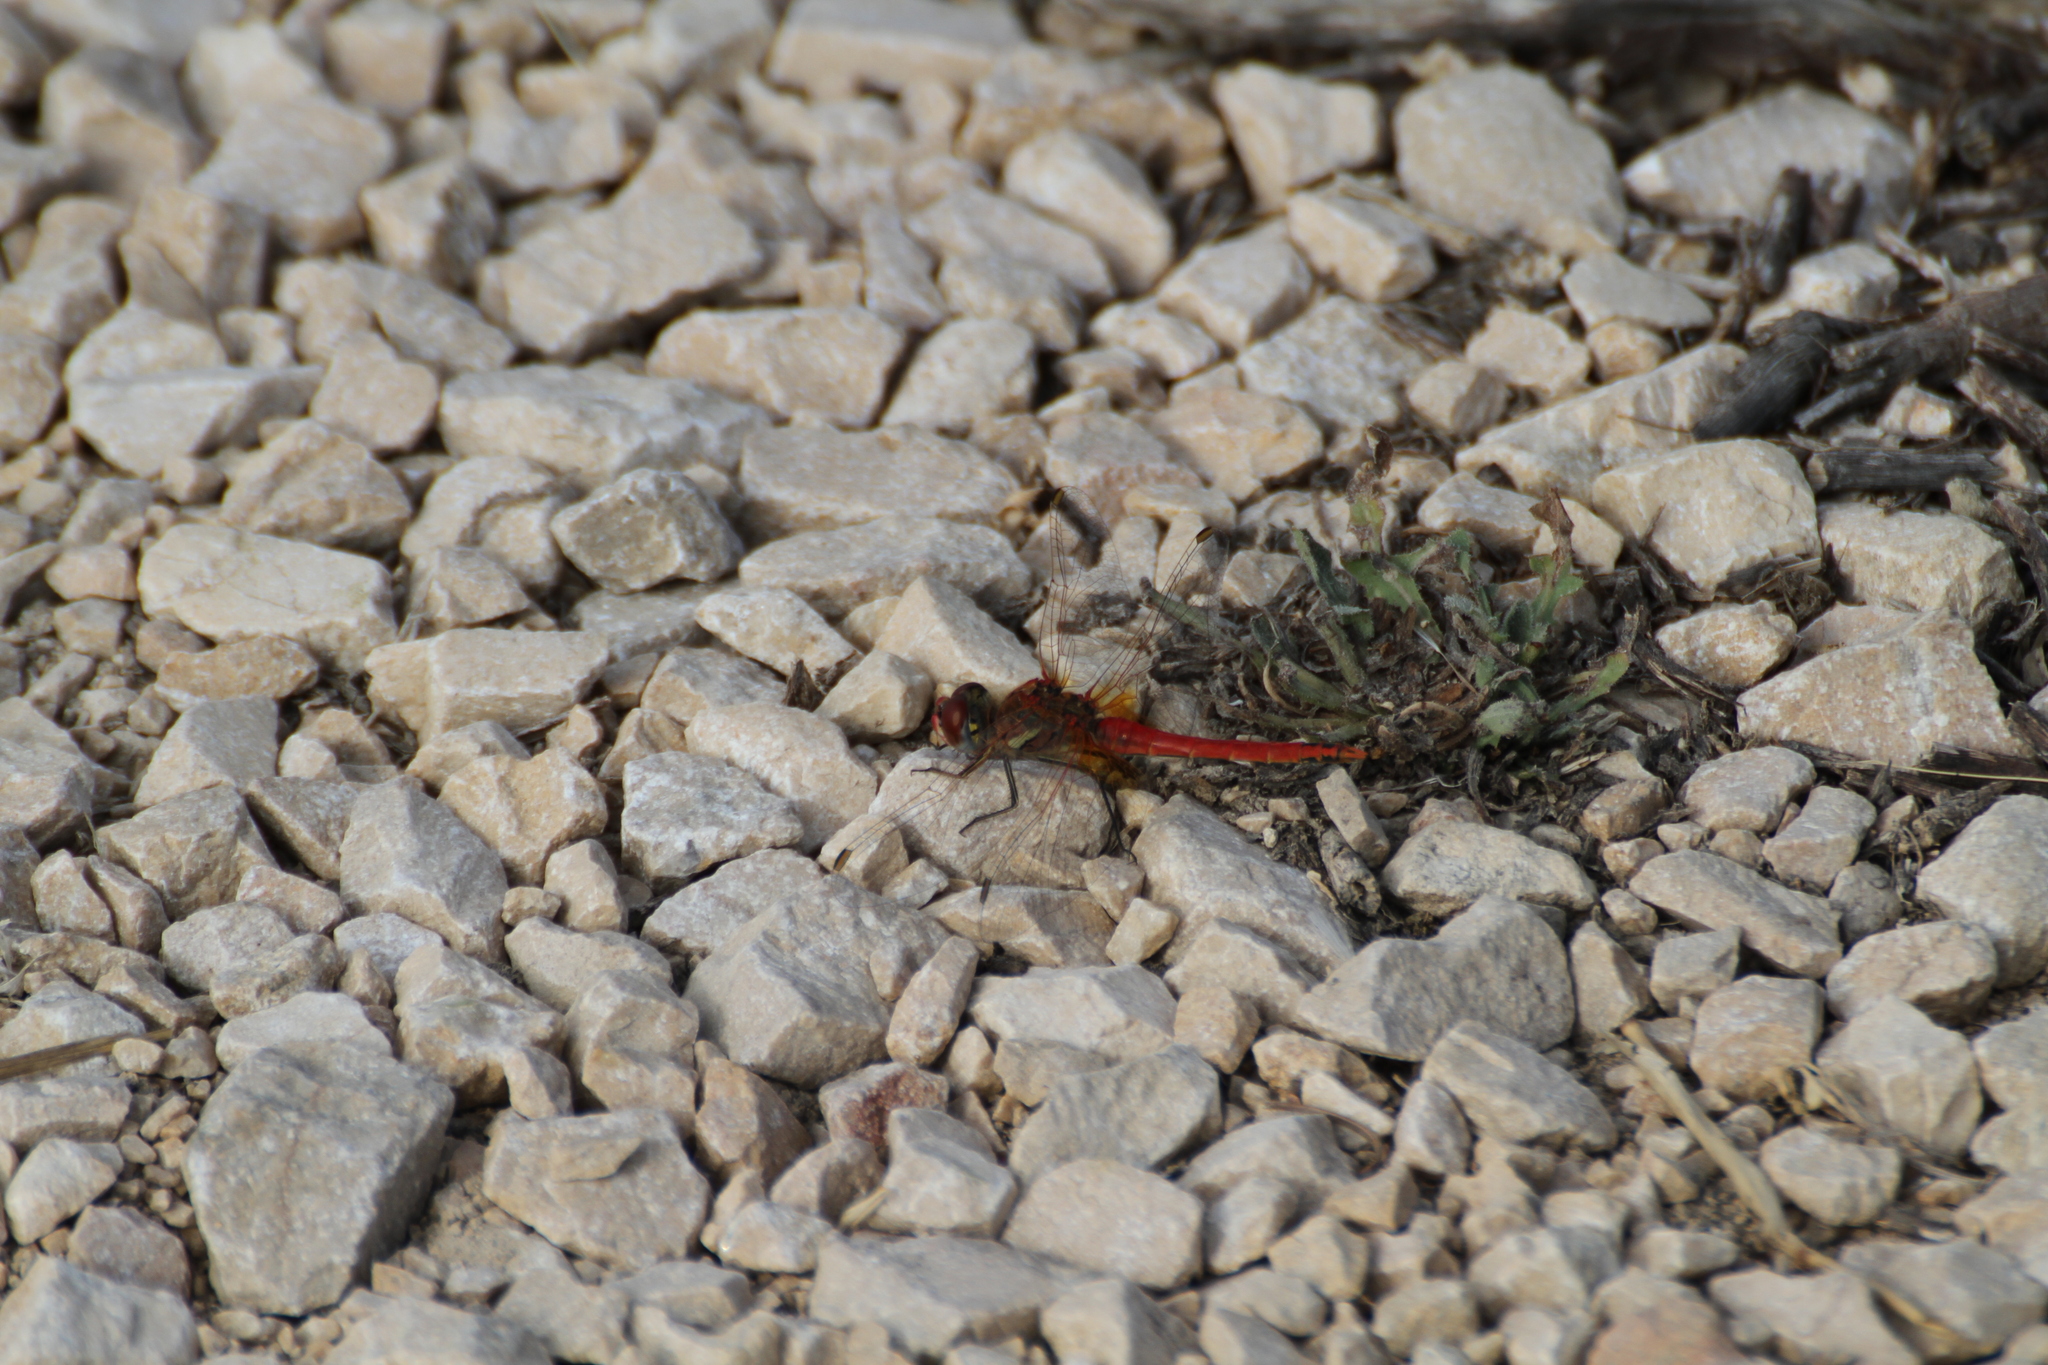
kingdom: Animalia
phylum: Arthropoda
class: Insecta
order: Odonata
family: Libellulidae
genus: Sympetrum
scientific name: Sympetrum fonscolombii
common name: Red-veined darter
